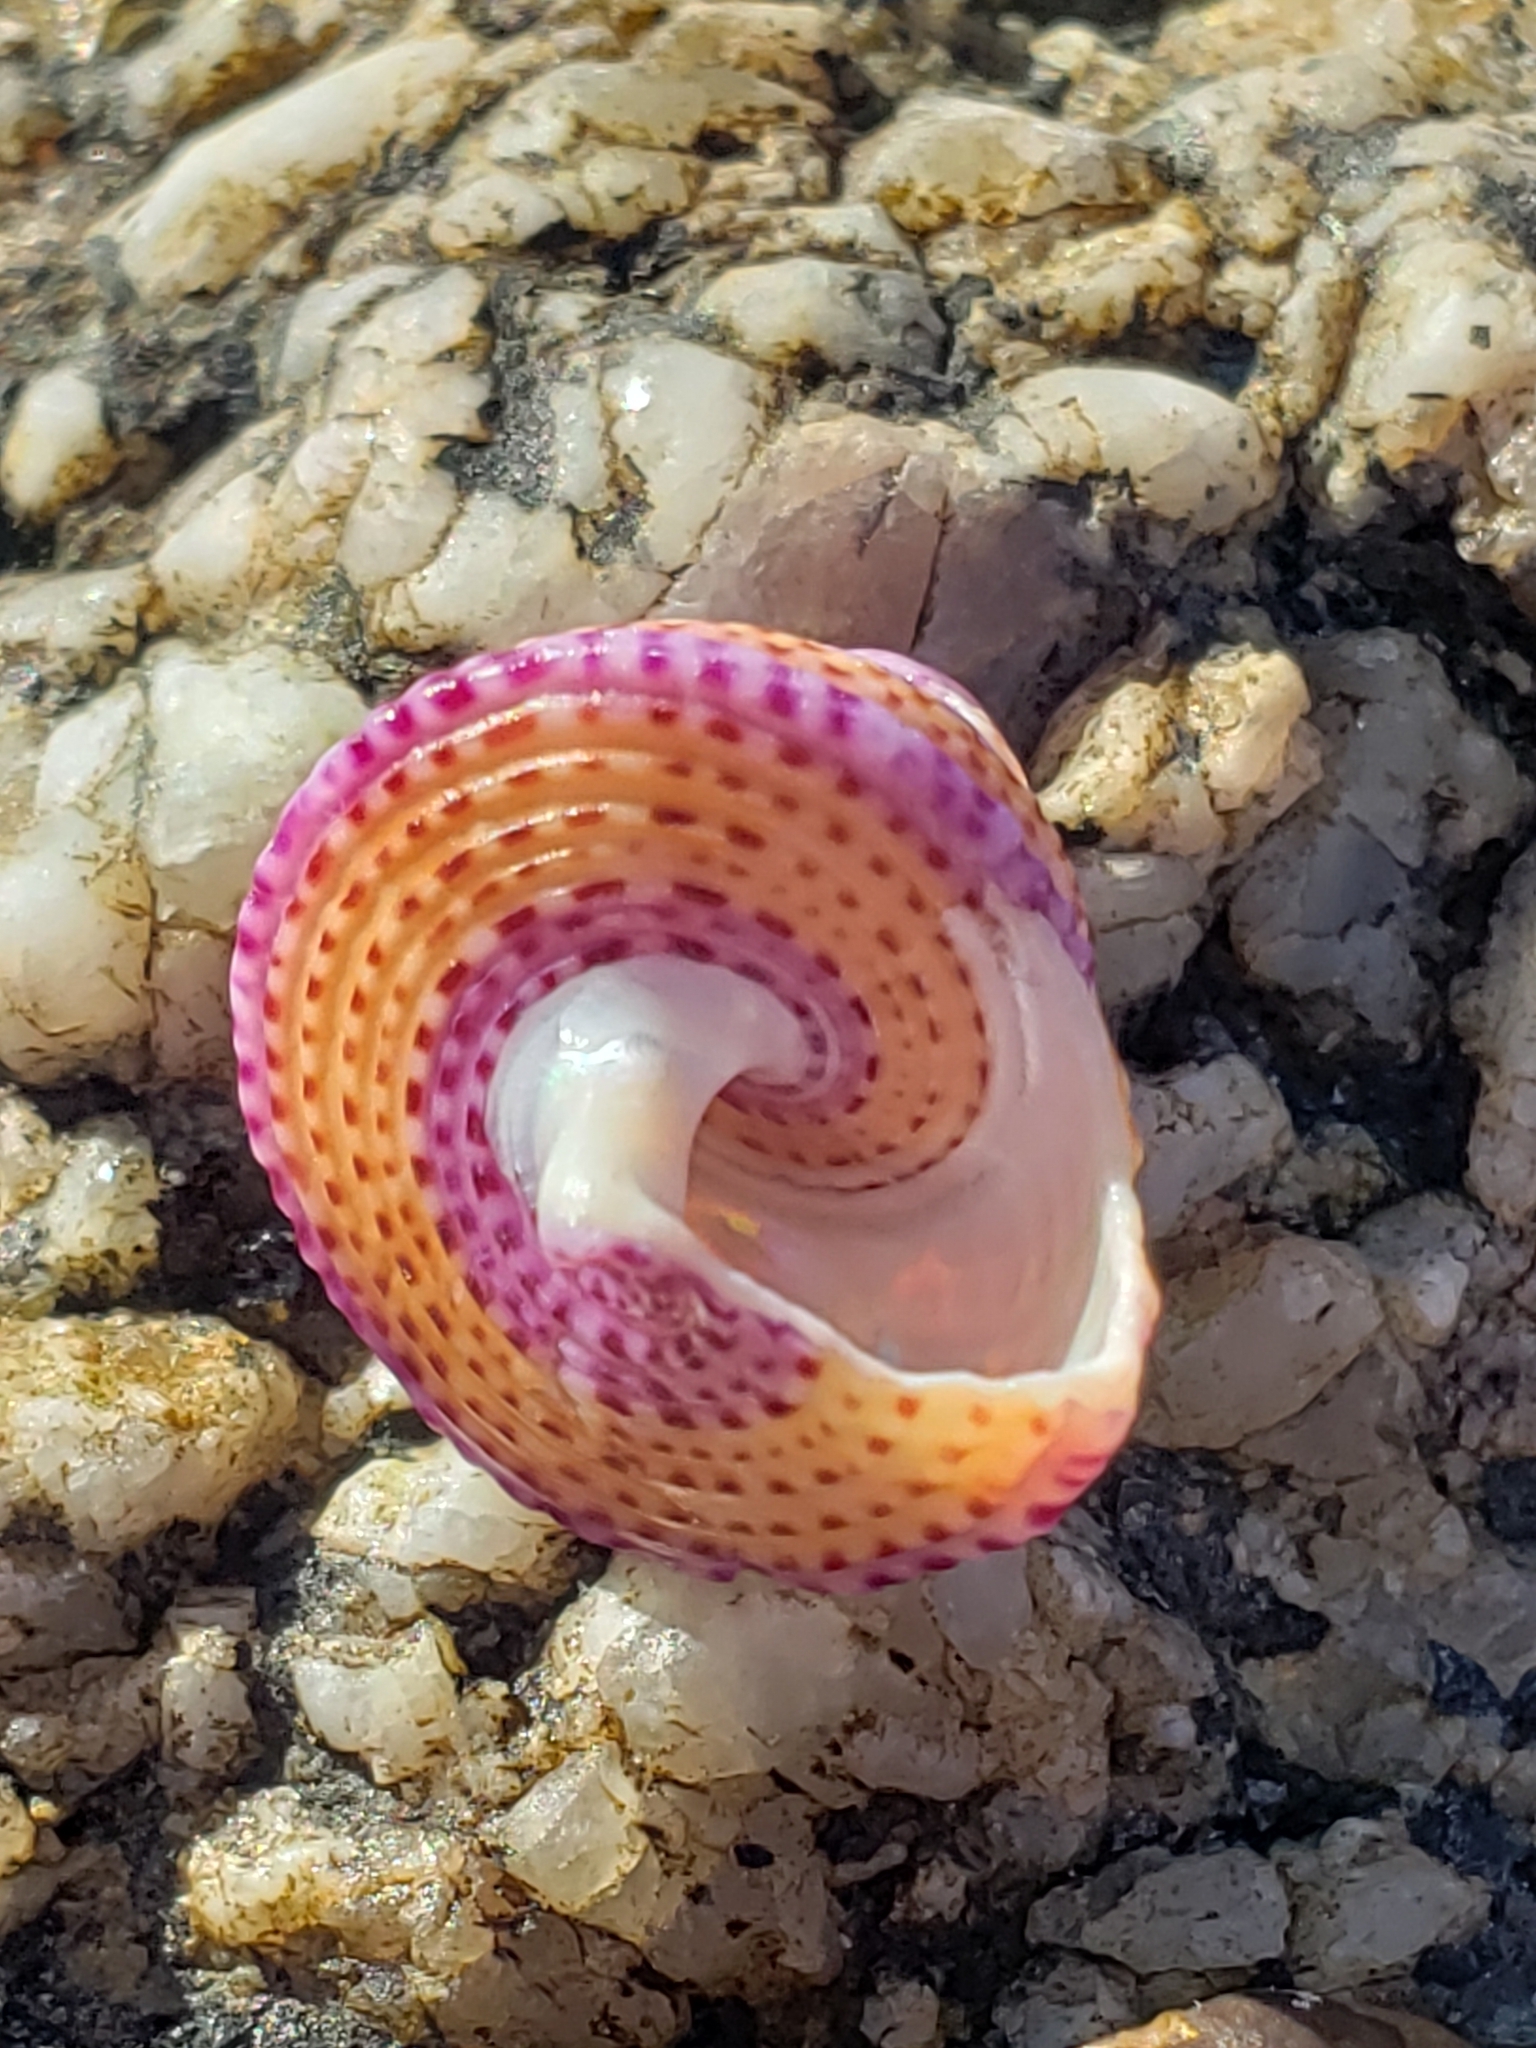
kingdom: Animalia
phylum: Mollusca
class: Gastropoda
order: Trochida
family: Calliostomatidae
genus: Calliostoma
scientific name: Calliostoma annulatum
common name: Blue-ring topsnail
